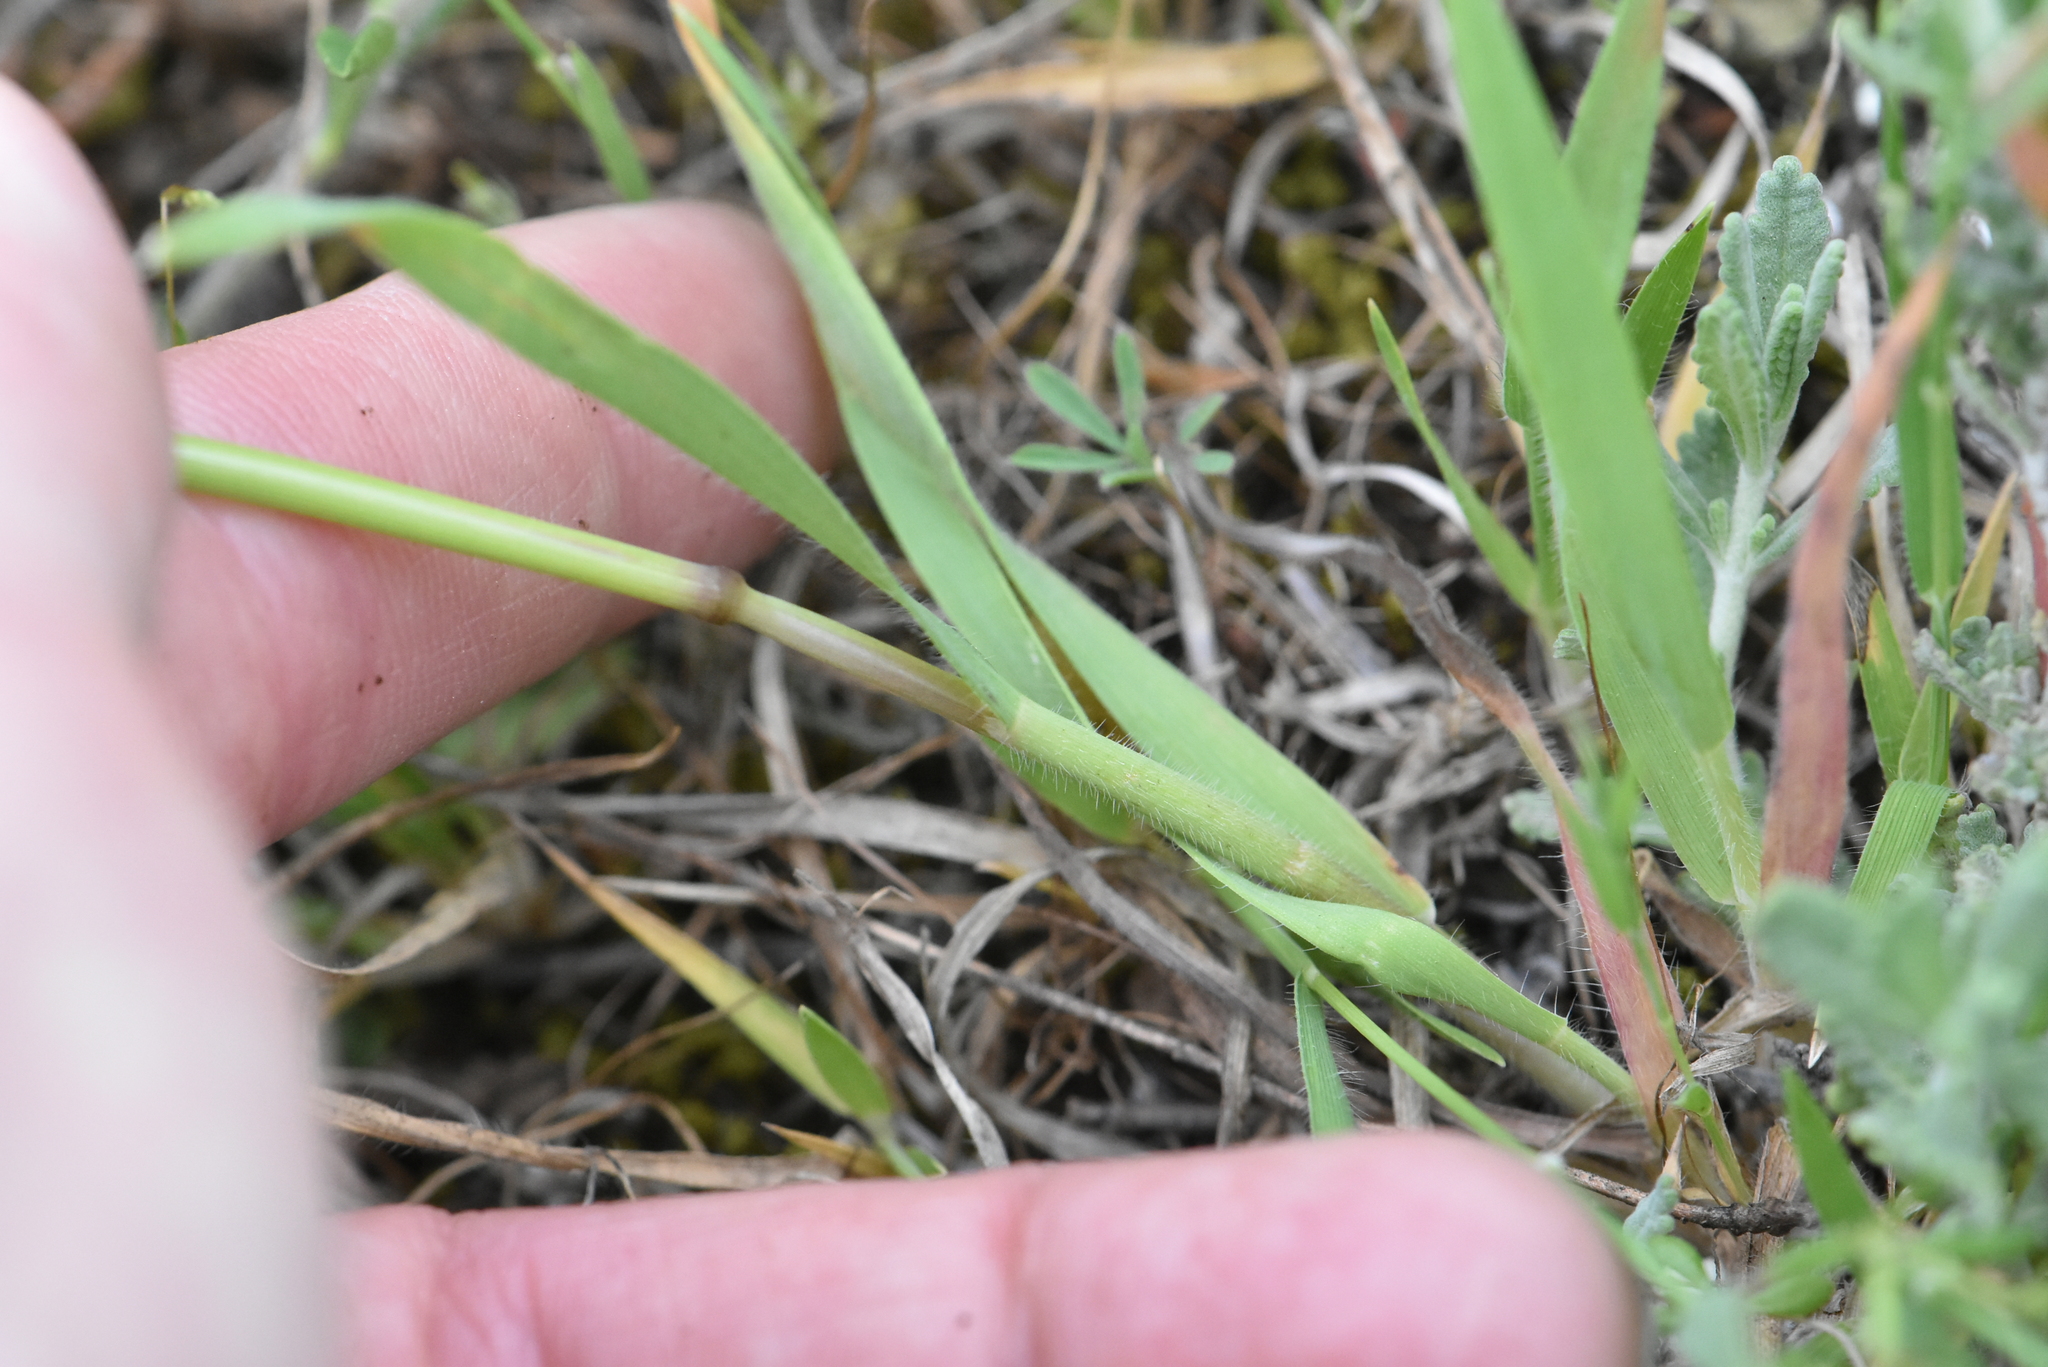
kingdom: Fungi
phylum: Basidiomycota
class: Ustilaginomycetes
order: Ustilaginales
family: Ustilaginaceae
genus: Ustilago
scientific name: Ustilago avenae
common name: Loose smut of oats & oat grass
